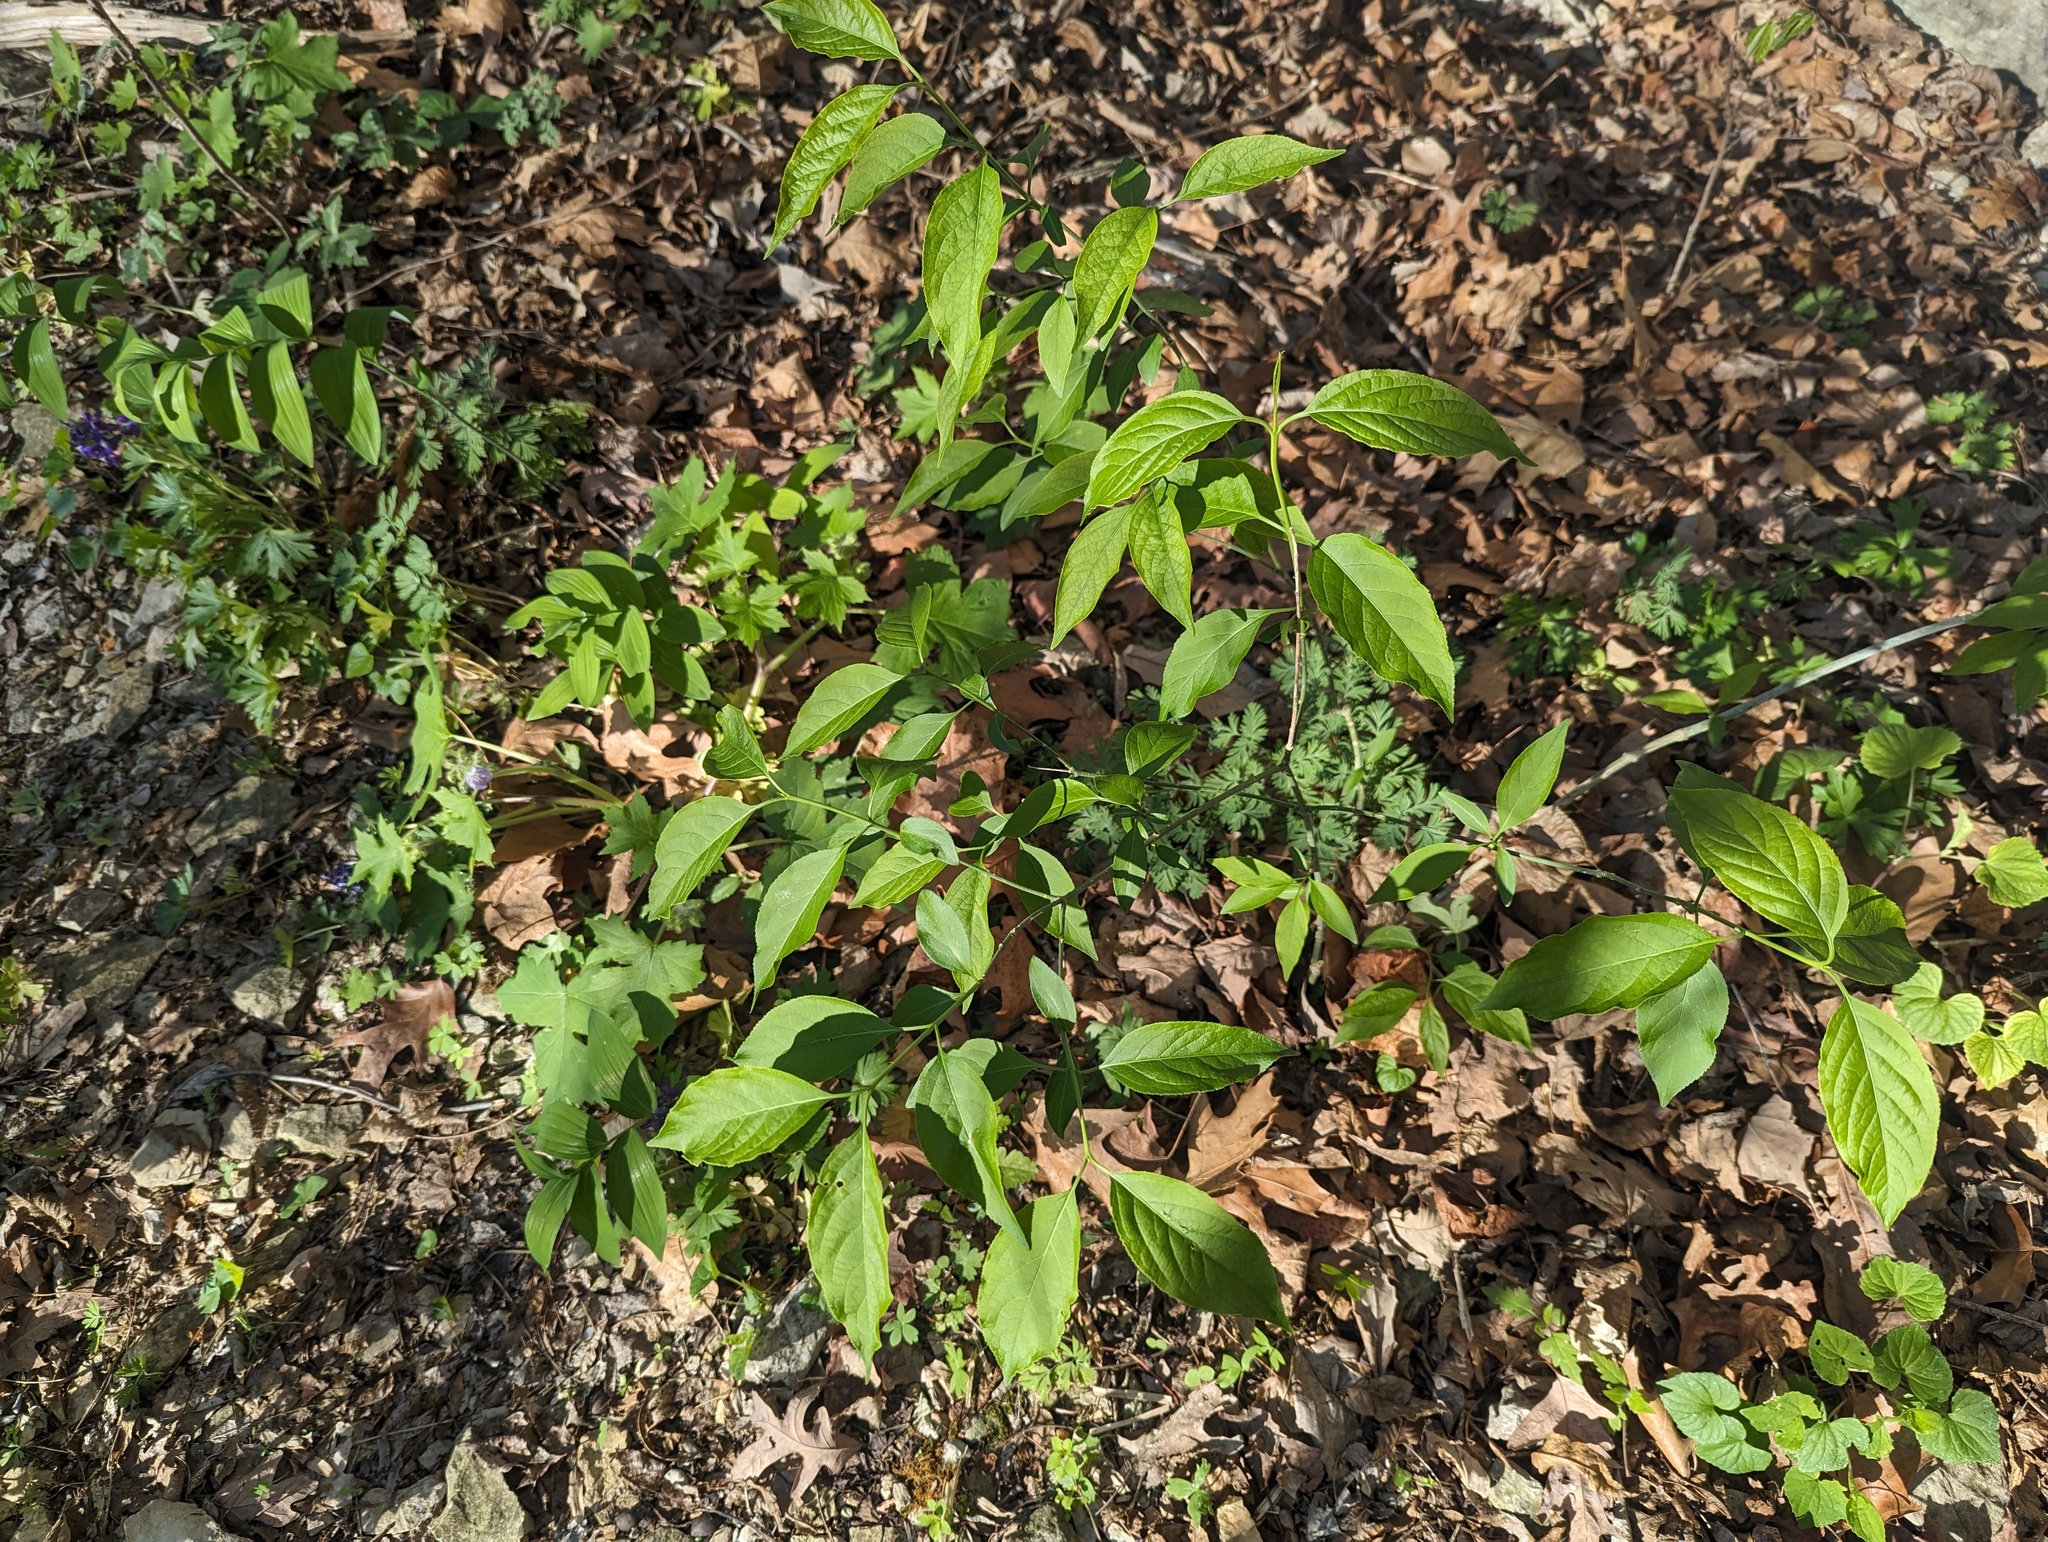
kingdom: Plantae
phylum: Tracheophyta
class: Magnoliopsida
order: Celastrales
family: Celastraceae
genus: Euonymus
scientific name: Euonymus atropurpureus
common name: Eastern wahoo
